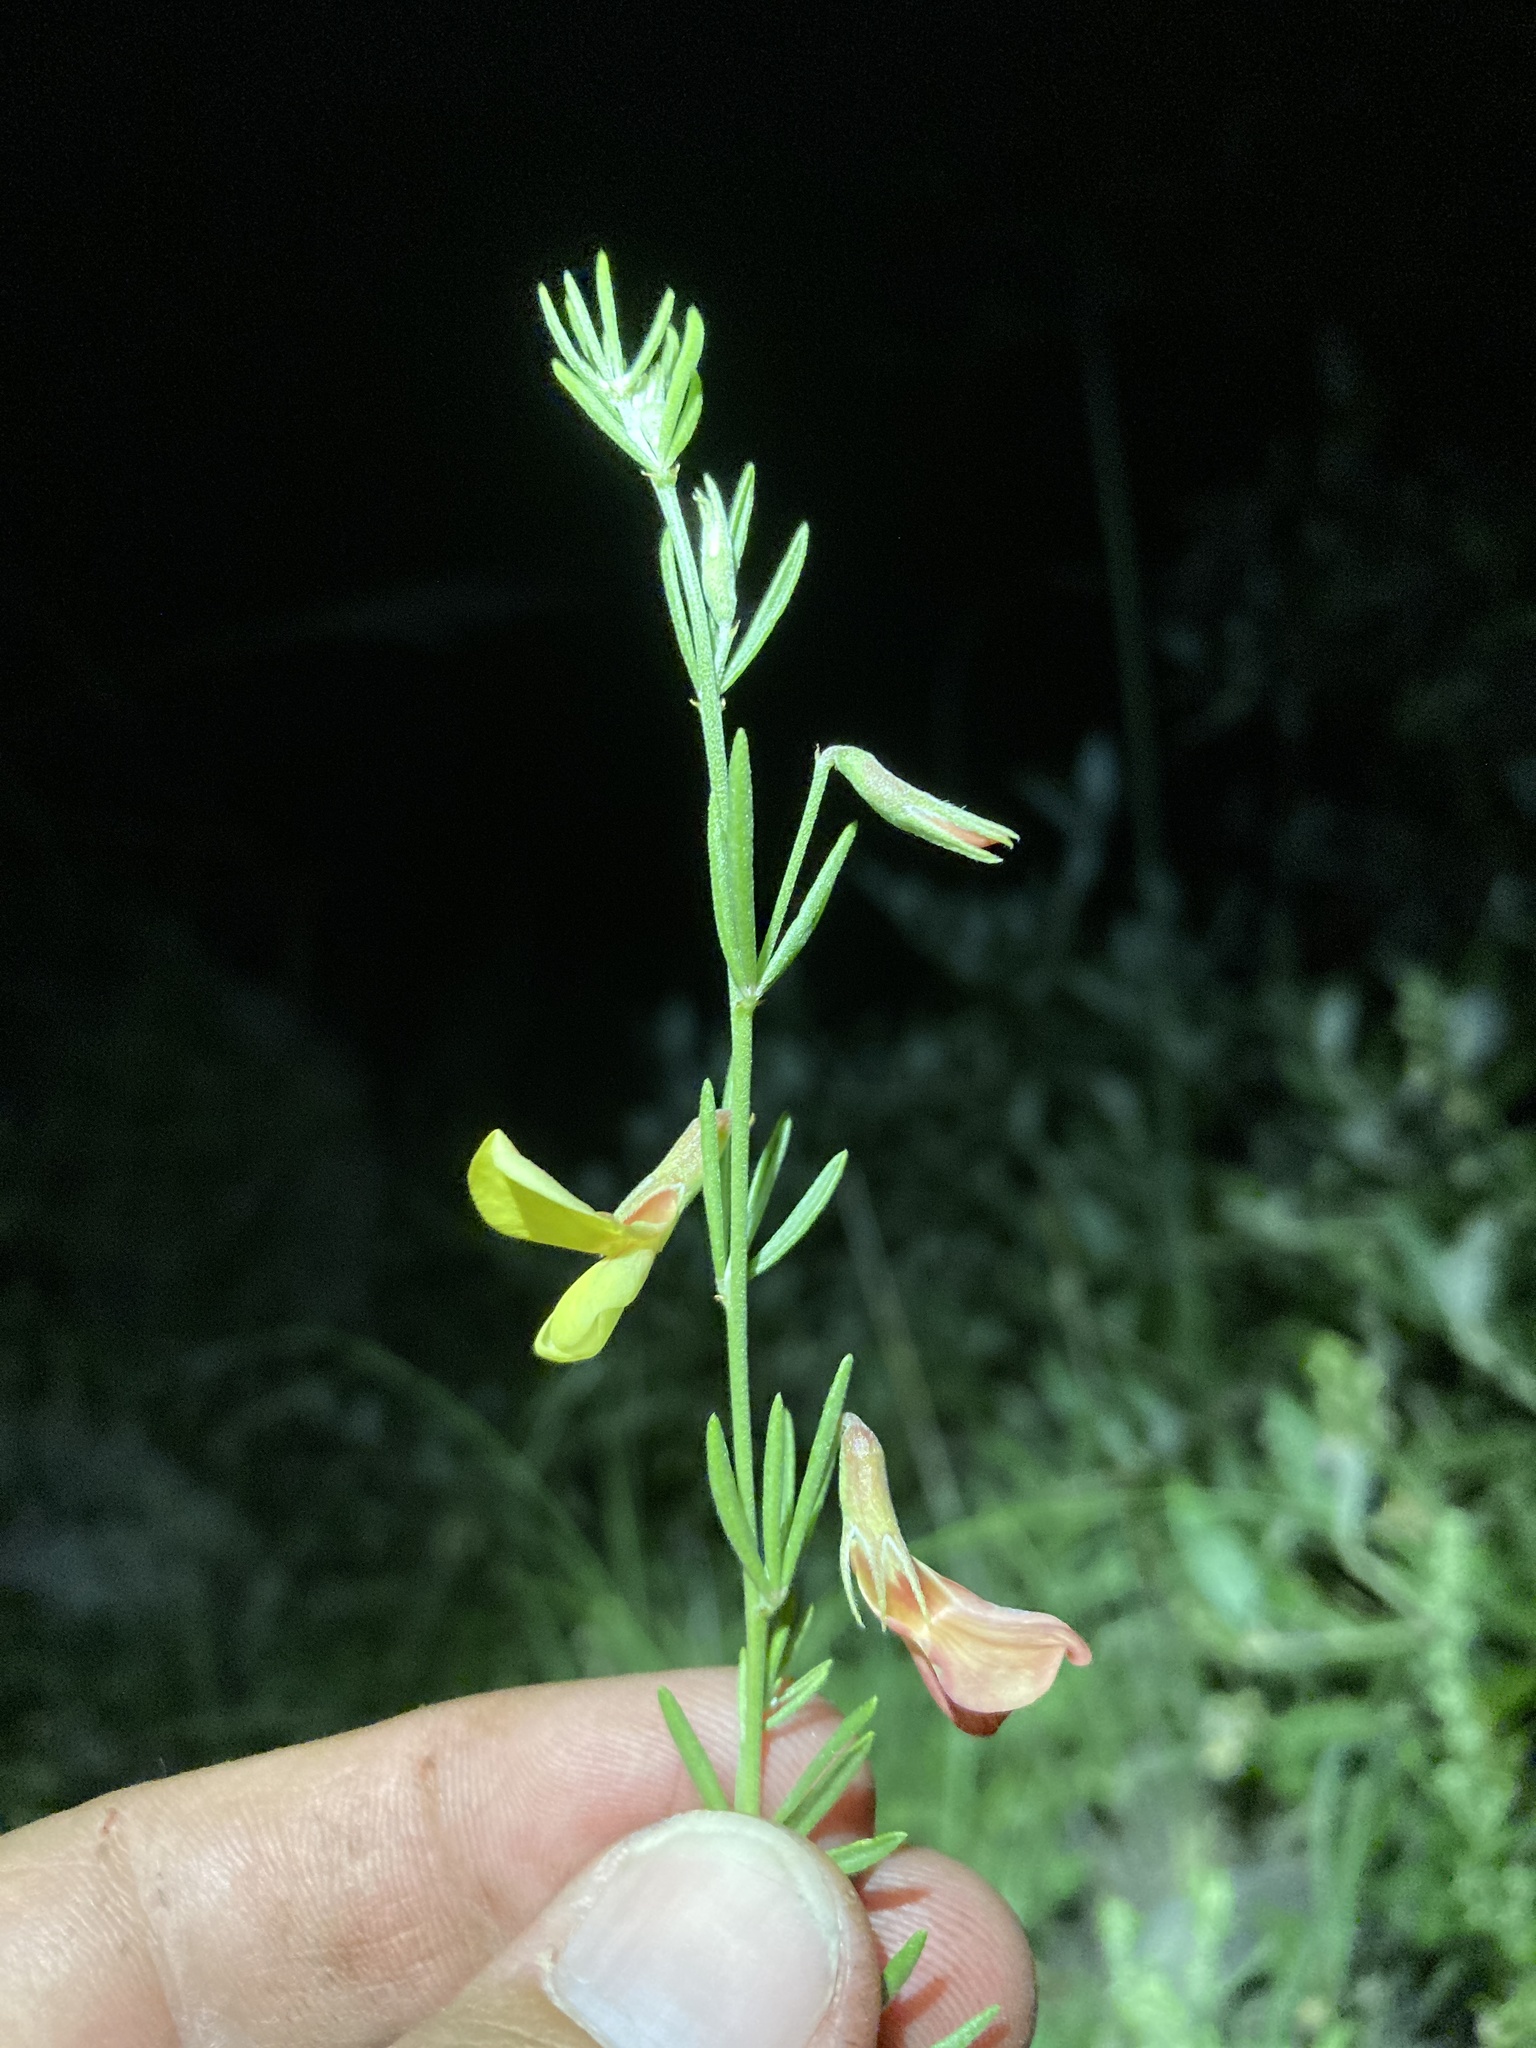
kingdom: Plantae
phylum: Tracheophyta
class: Magnoliopsida
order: Fabales
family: Fabaceae
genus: Acmispon
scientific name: Acmispon wrightii
